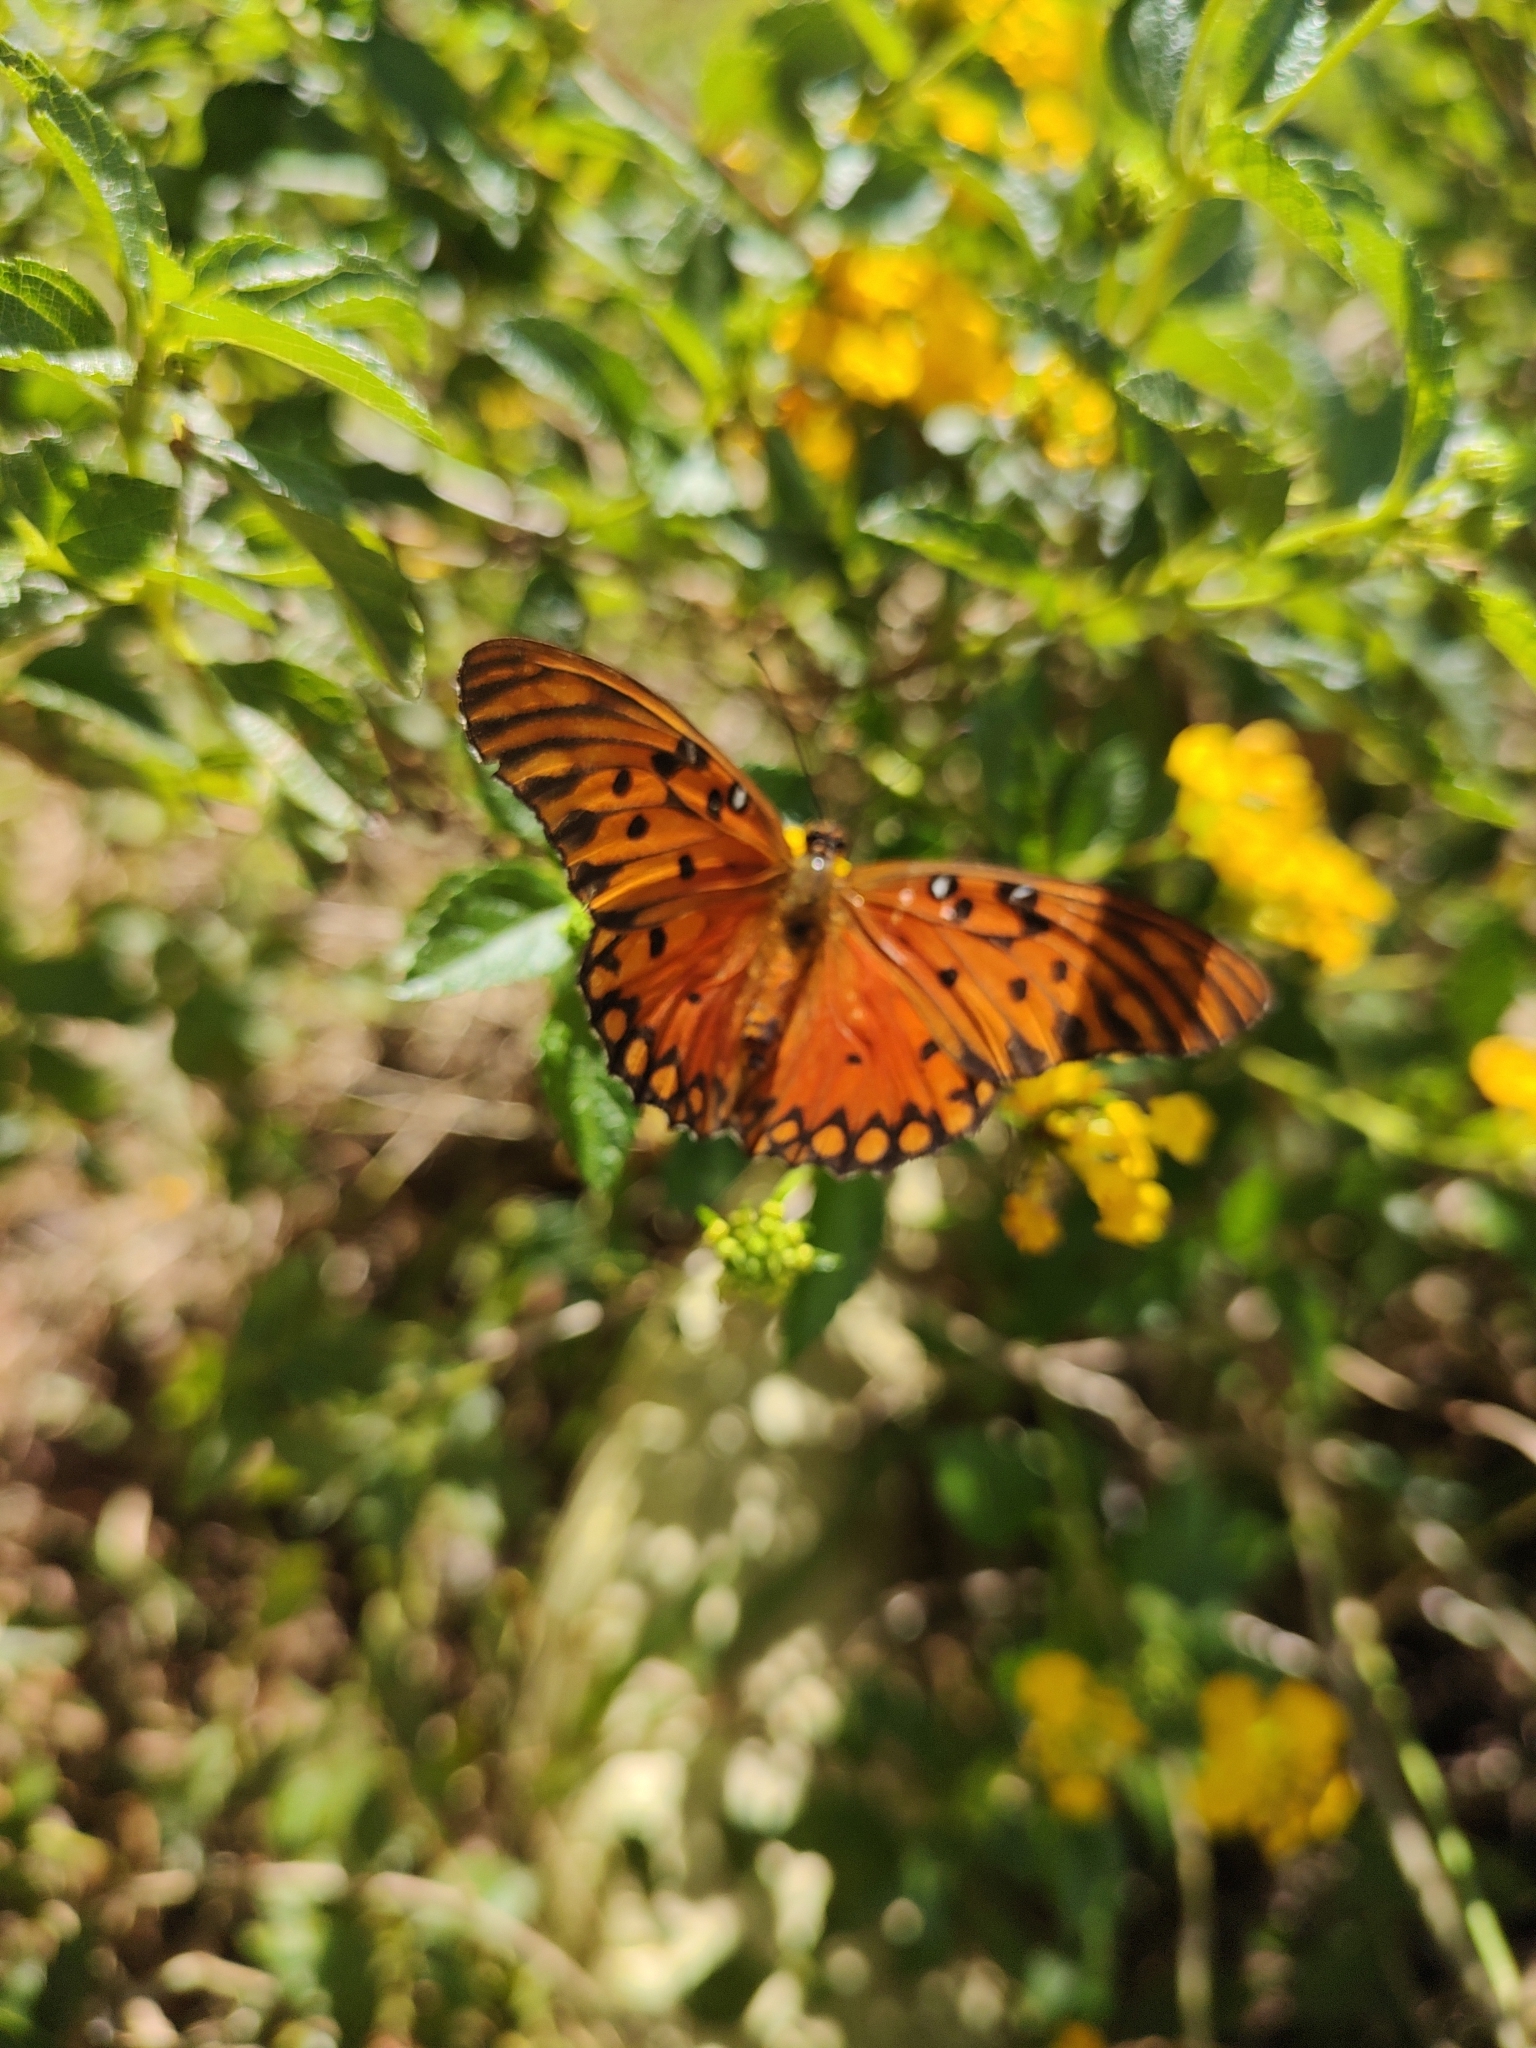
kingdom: Animalia
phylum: Arthropoda
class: Insecta
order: Lepidoptera
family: Nymphalidae
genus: Dione
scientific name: Dione vanillae
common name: Gulf fritillary
